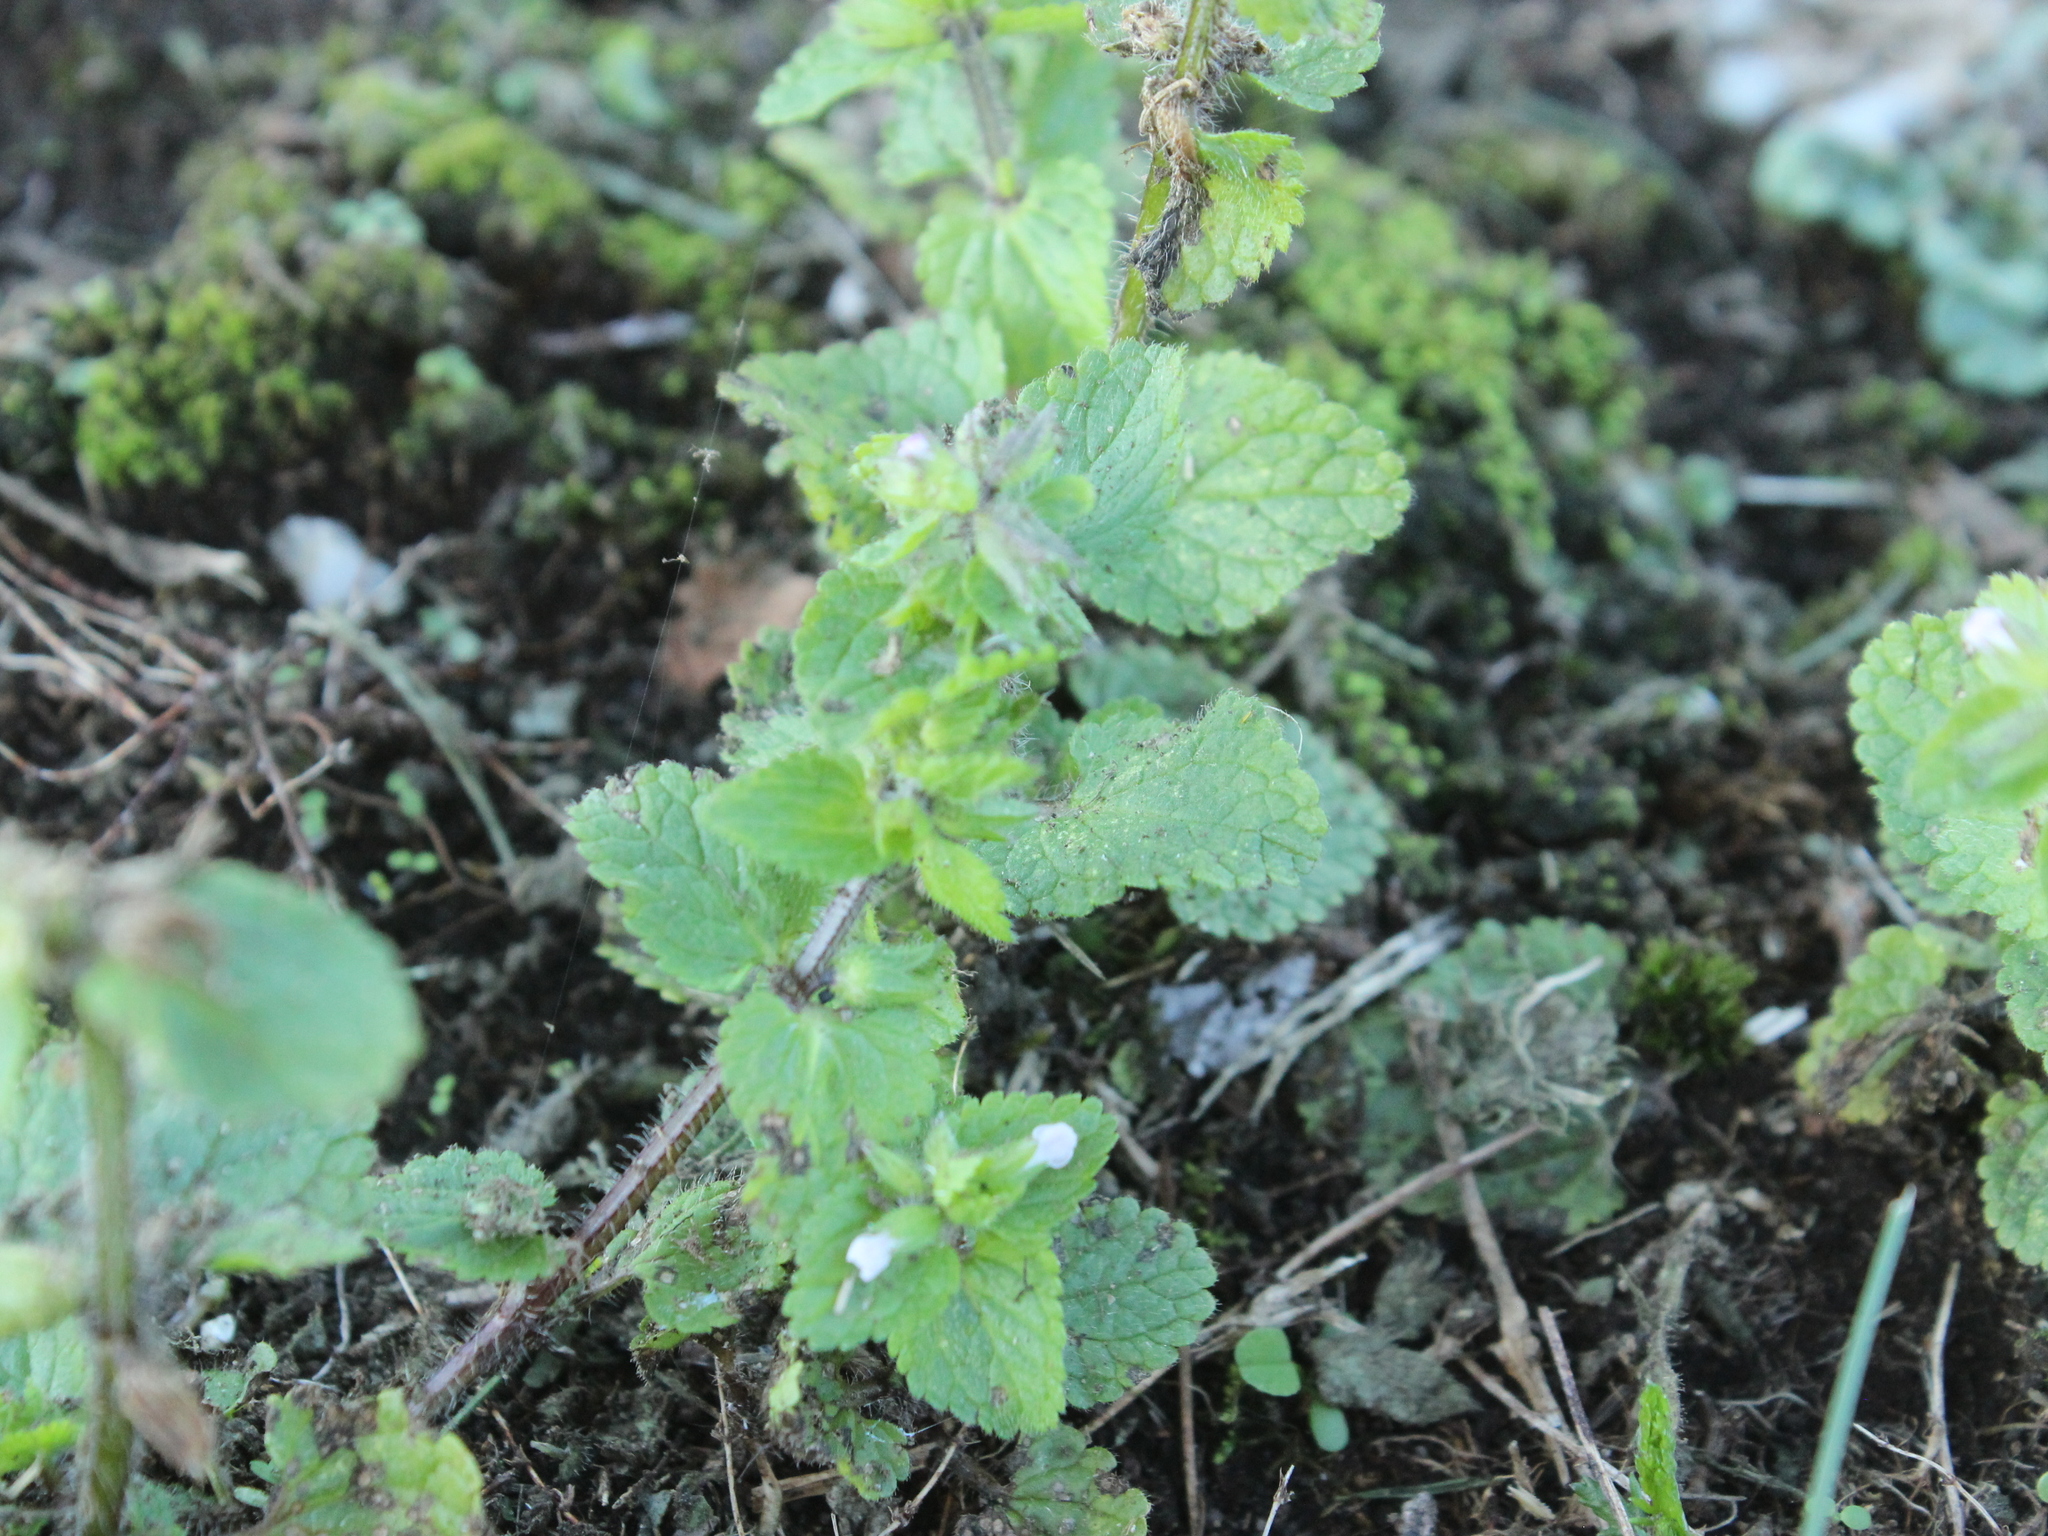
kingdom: Plantae
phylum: Tracheophyta
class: Magnoliopsida
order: Lamiales
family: Lamiaceae
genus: Stachys
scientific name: Stachys arvensis
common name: Field woundwort
